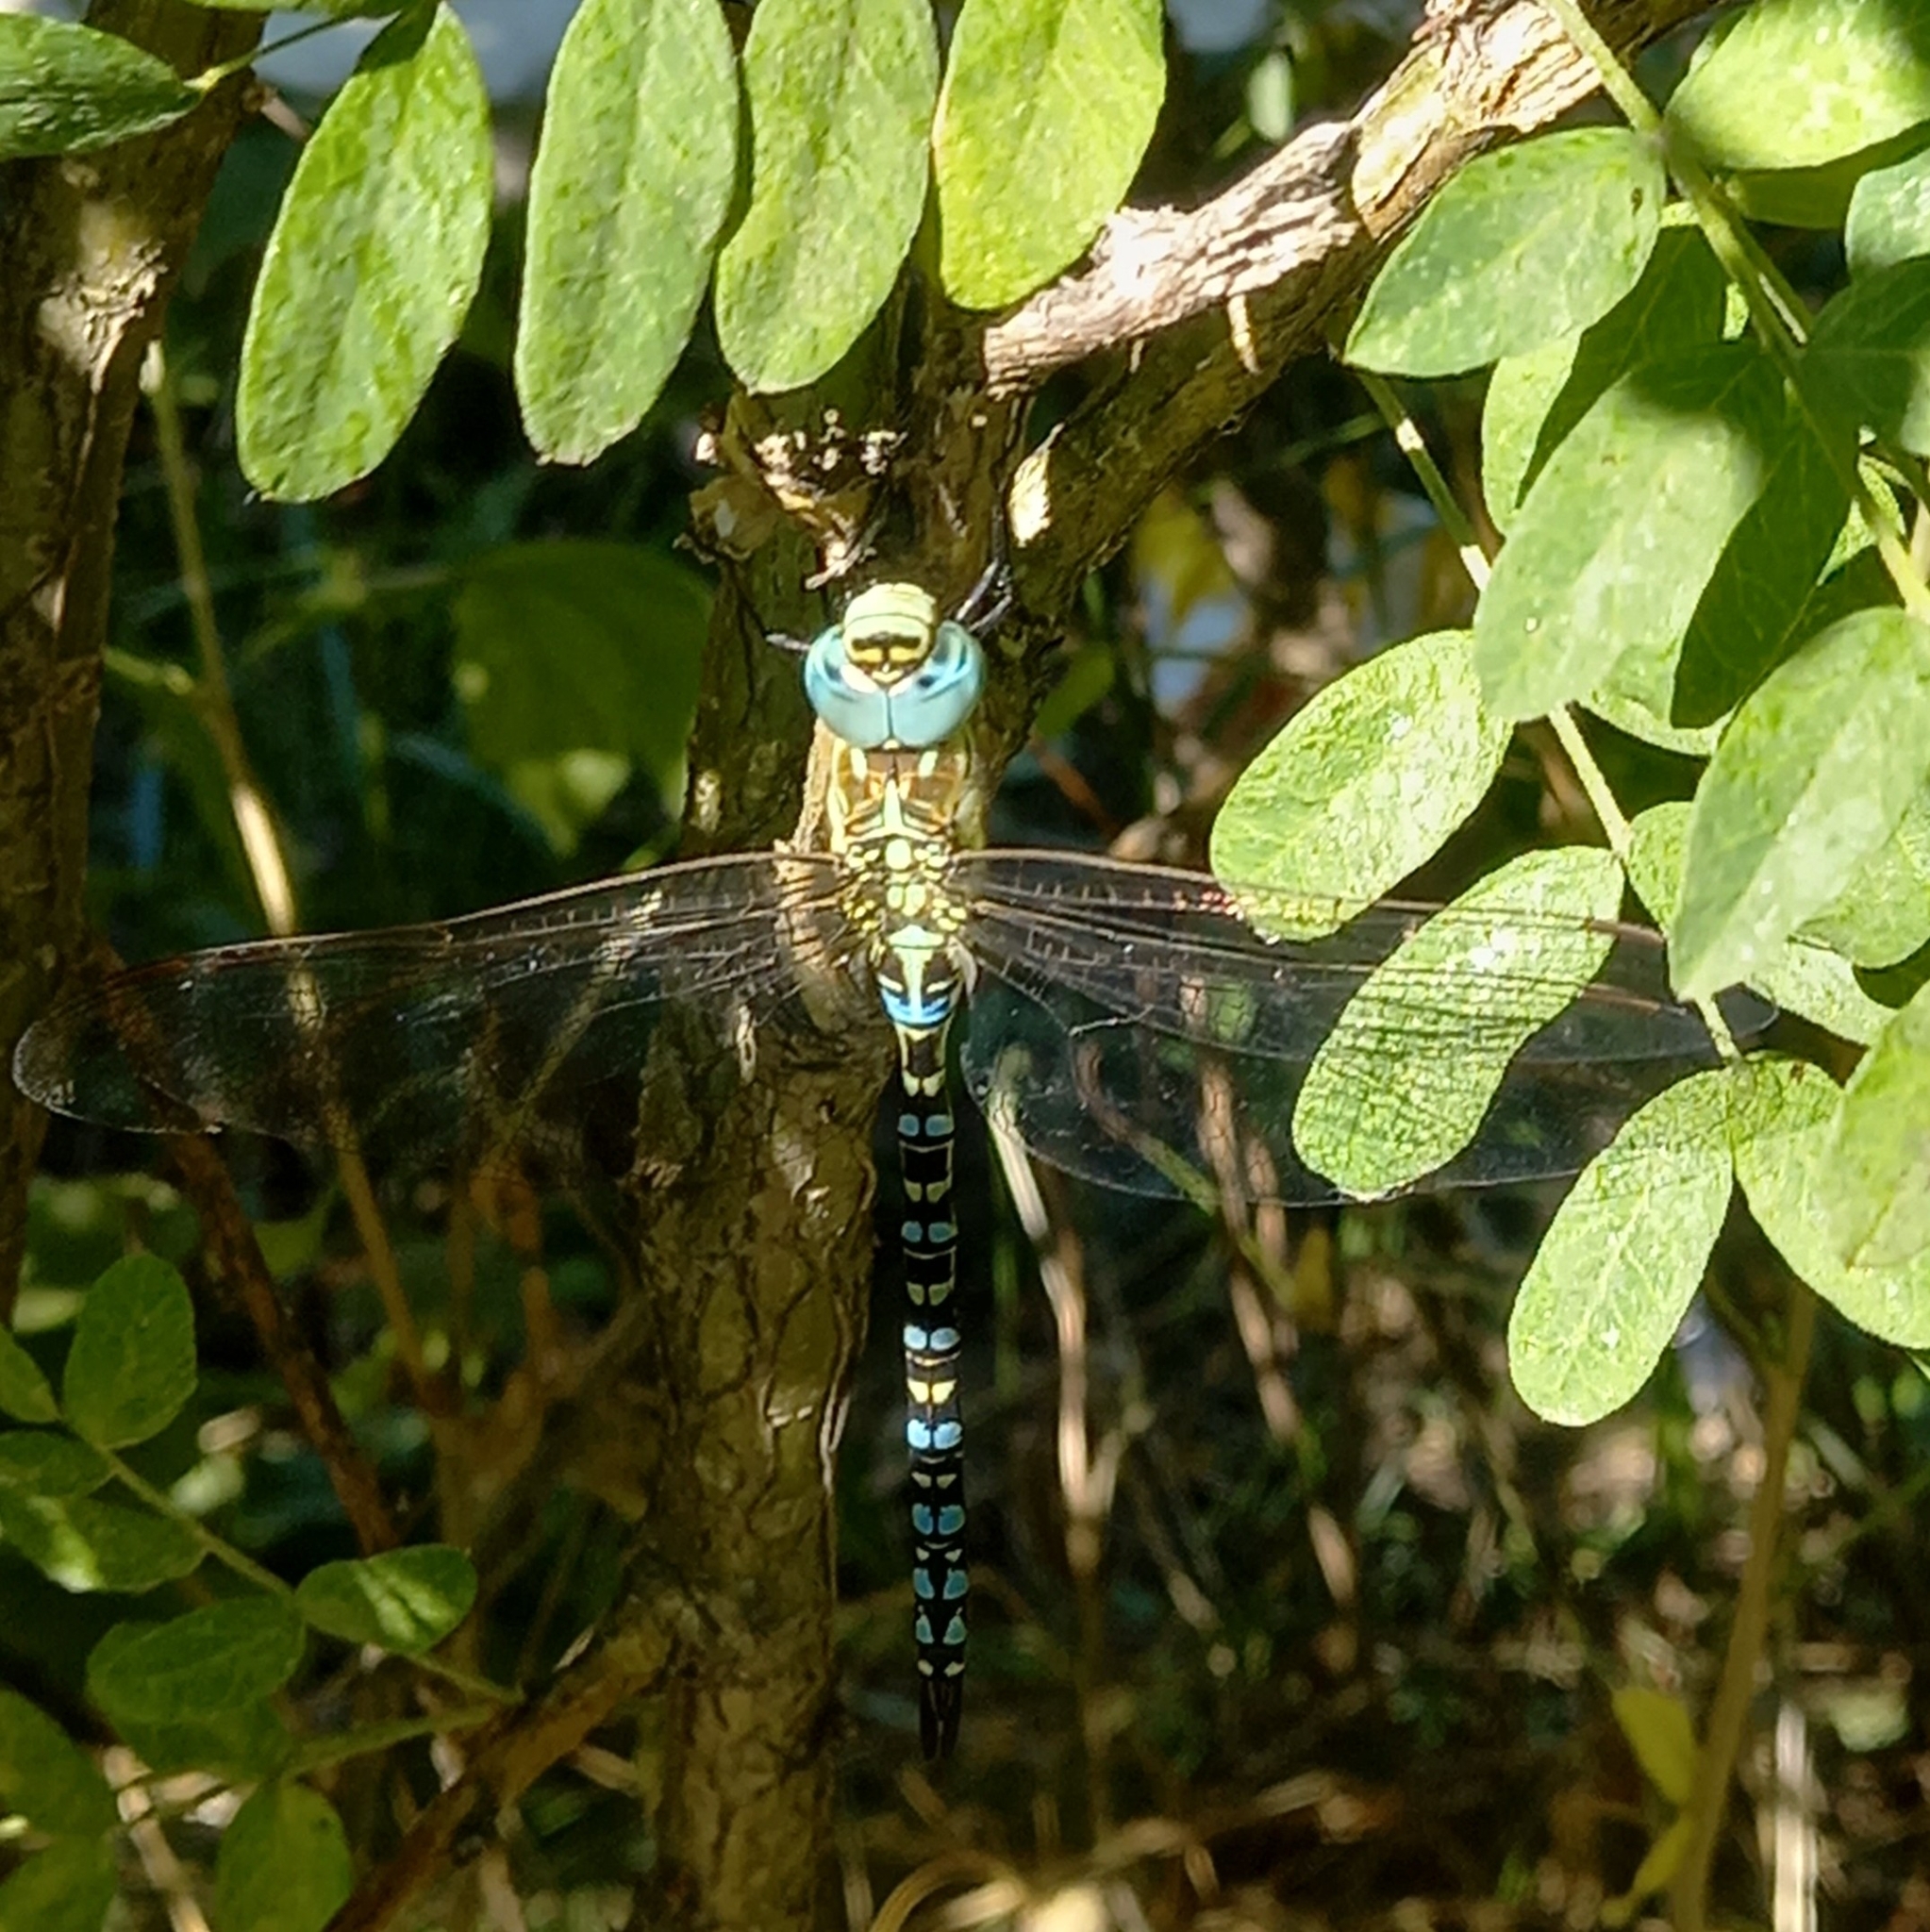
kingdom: Animalia
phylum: Arthropoda
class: Insecta
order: Odonata
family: Aeshnidae
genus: Aeshna
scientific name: Aeshna affinis
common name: Southern migrant hawker
